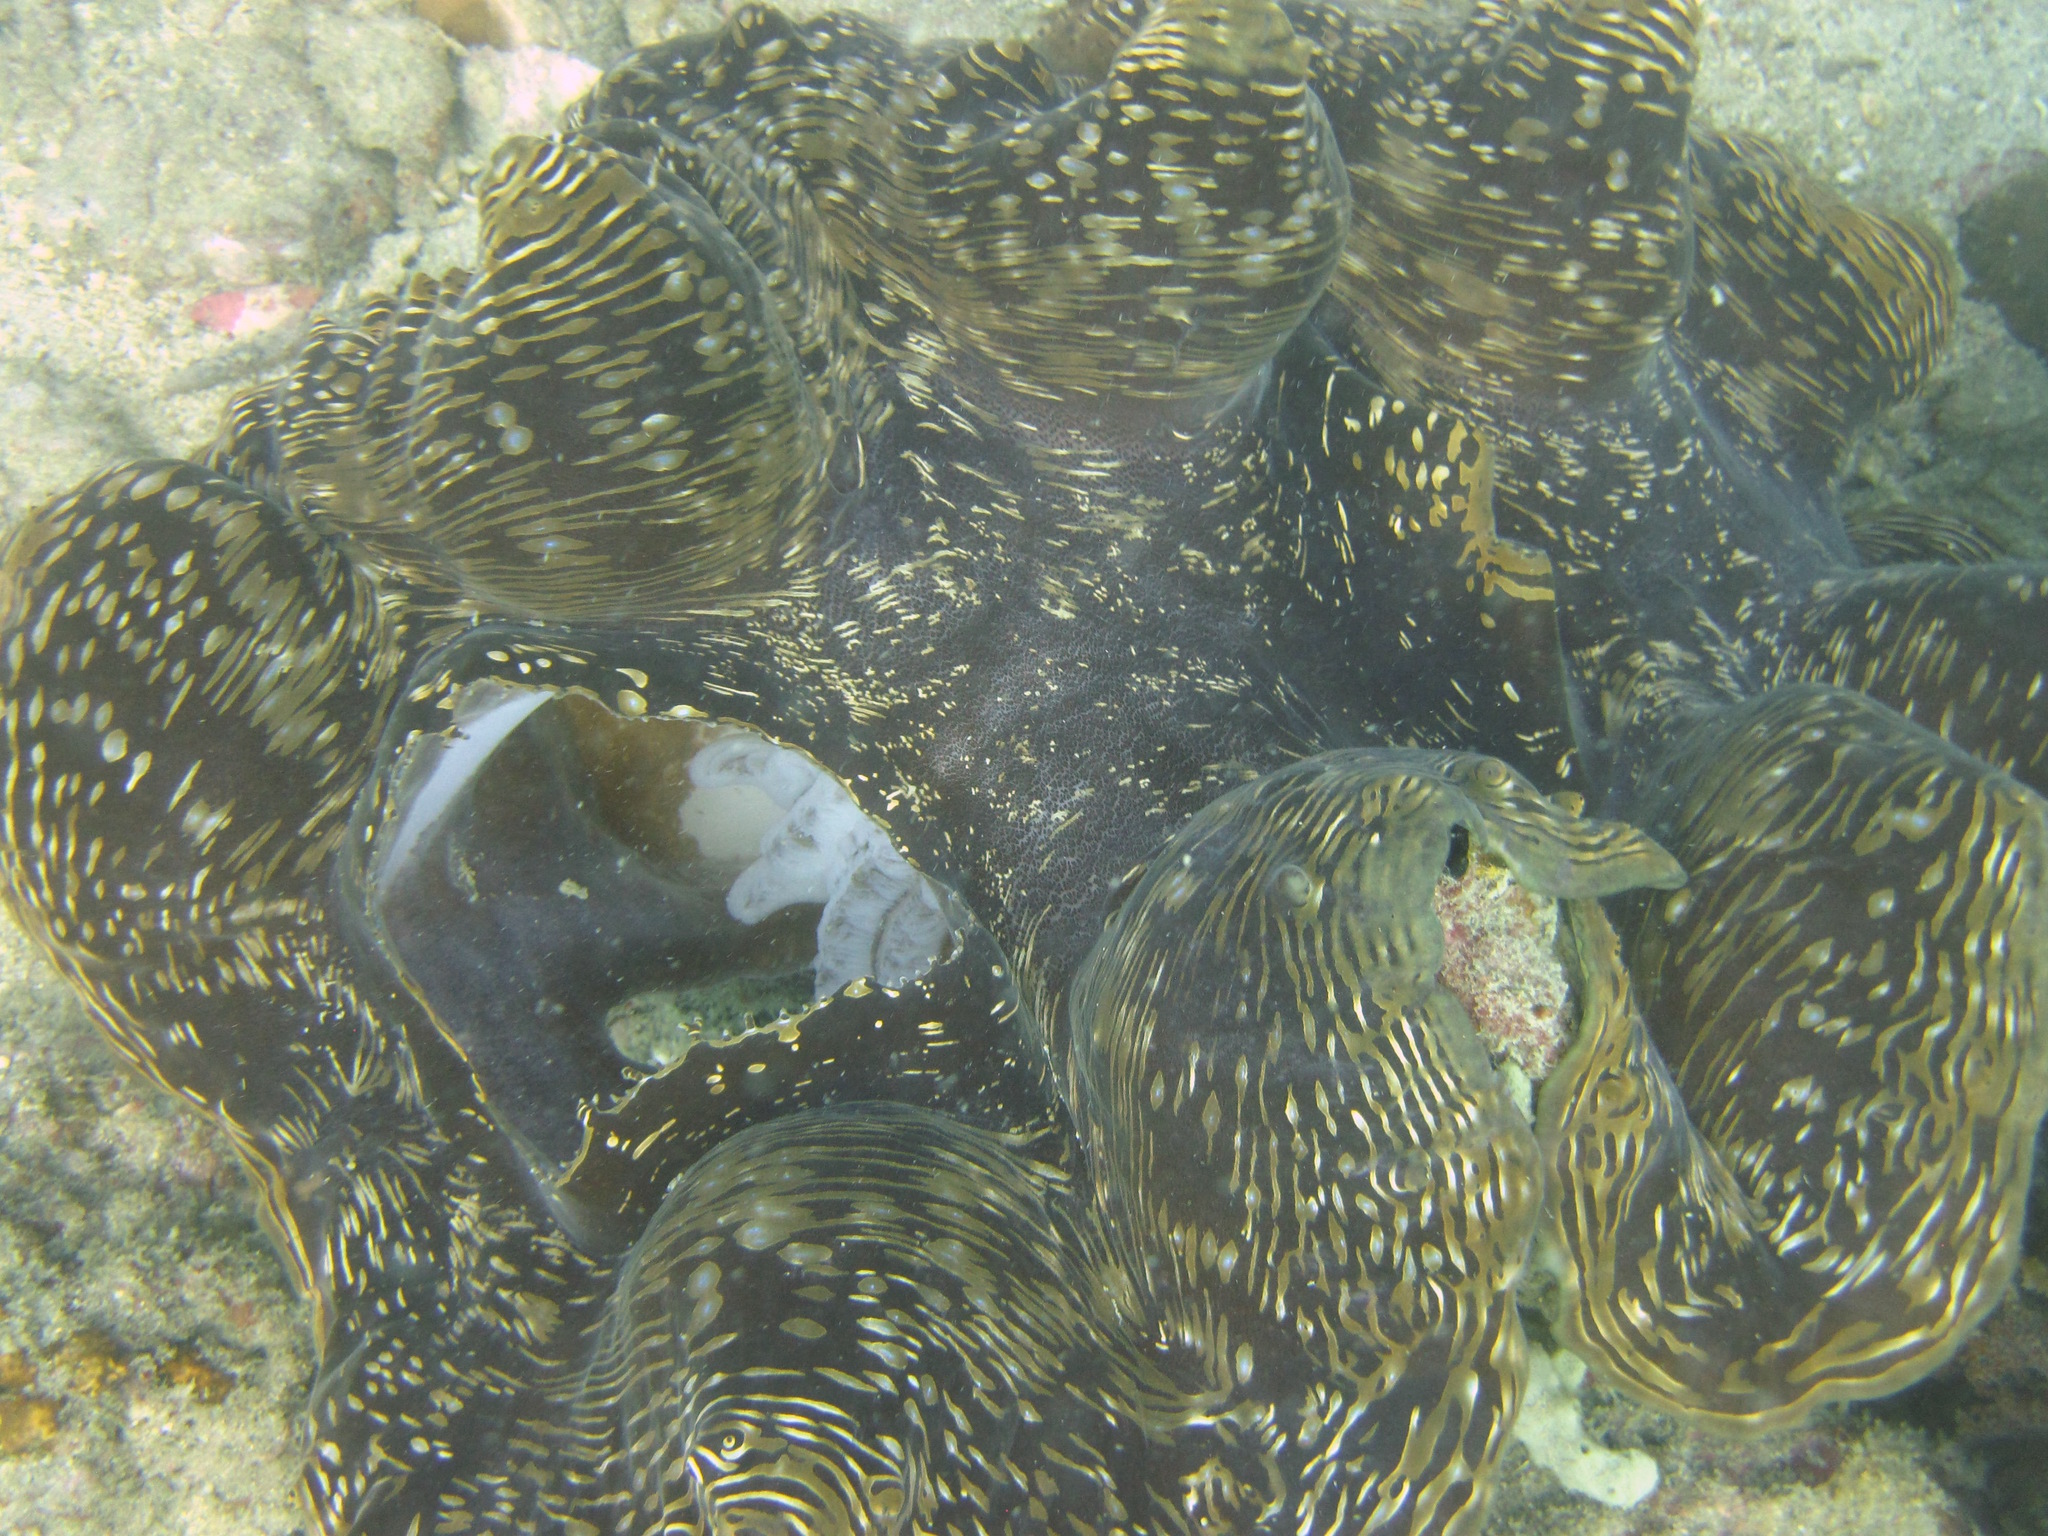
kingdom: Animalia
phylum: Mollusca
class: Bivalvia
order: Cardiida
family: Cardiidae
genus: Tridacna
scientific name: Tridacna squamosa
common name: Fluted clam
